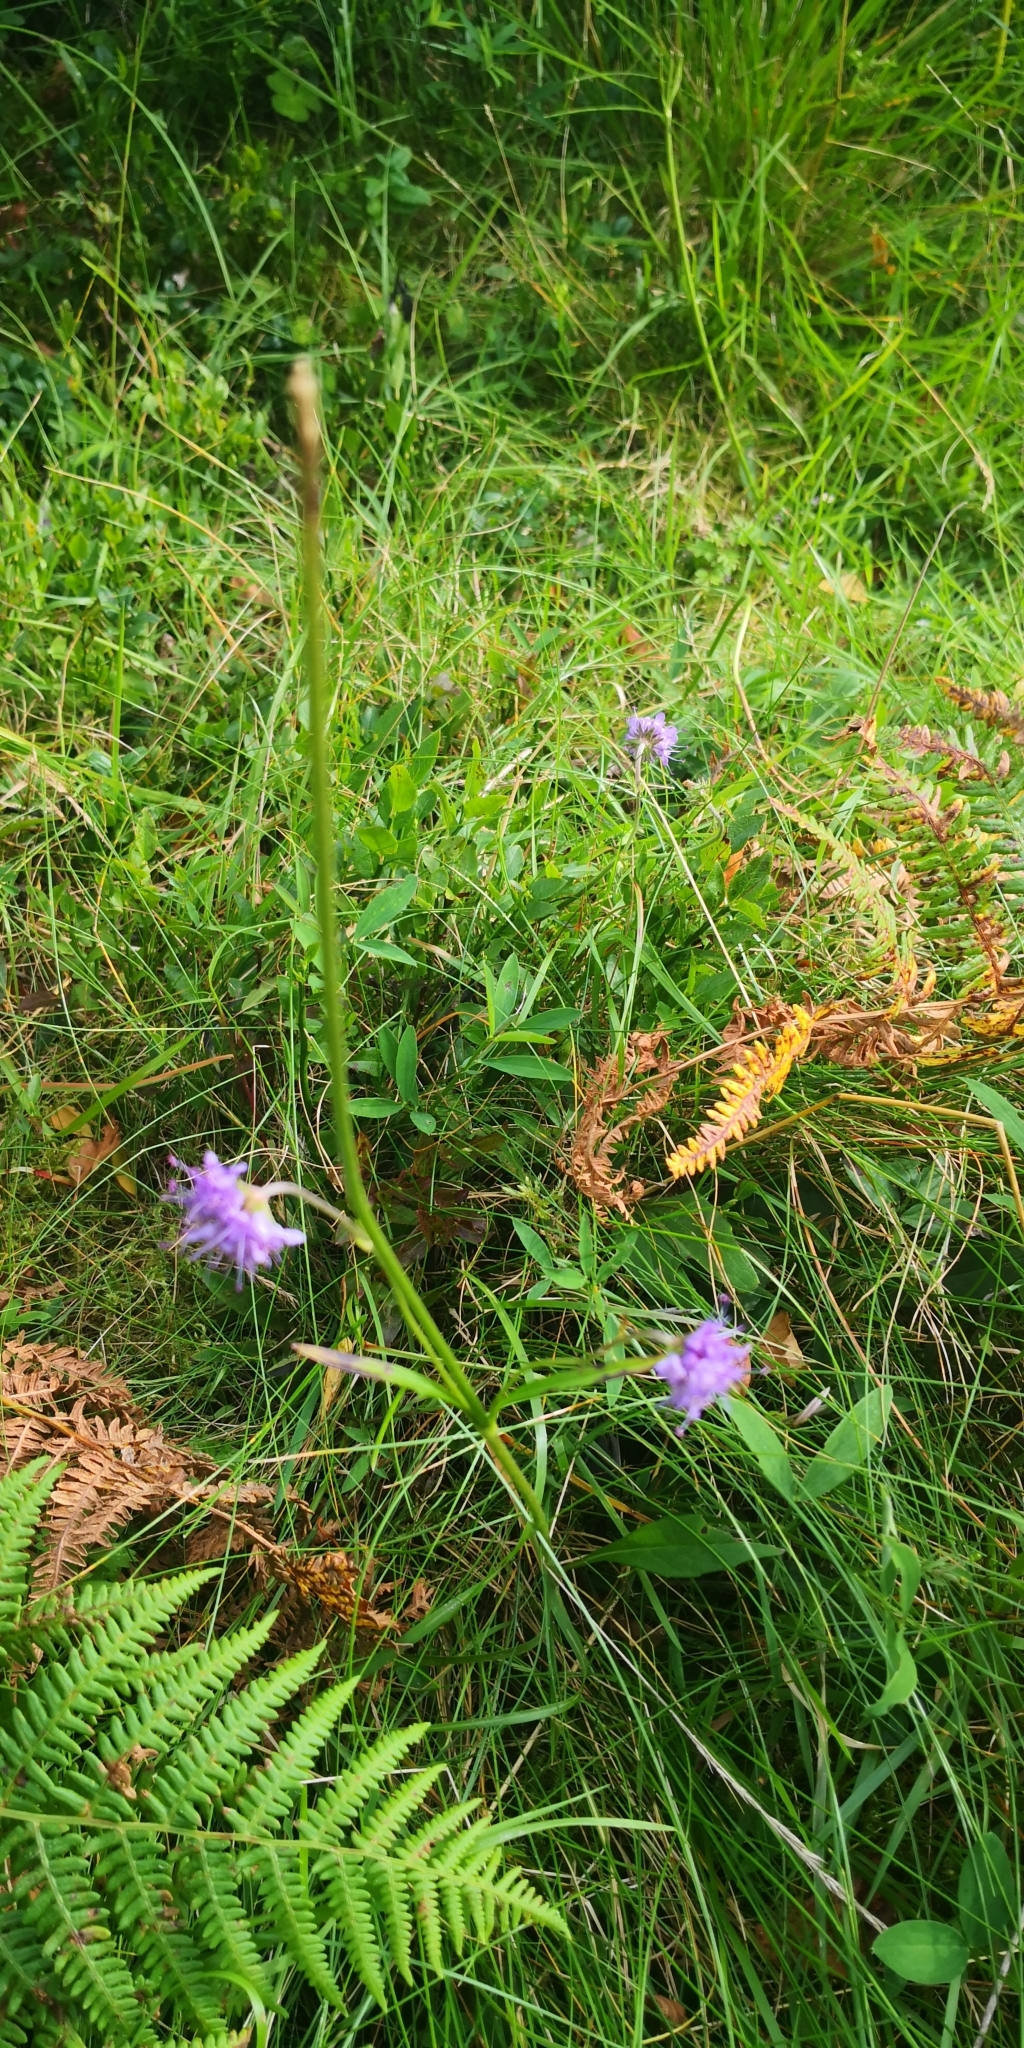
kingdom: Plantae
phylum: Tracheophyta
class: Magnoliopsida
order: Dipsacales
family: Caprifoliaceae
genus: Succisa
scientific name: Succisa pratensis
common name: Devil's-bit
